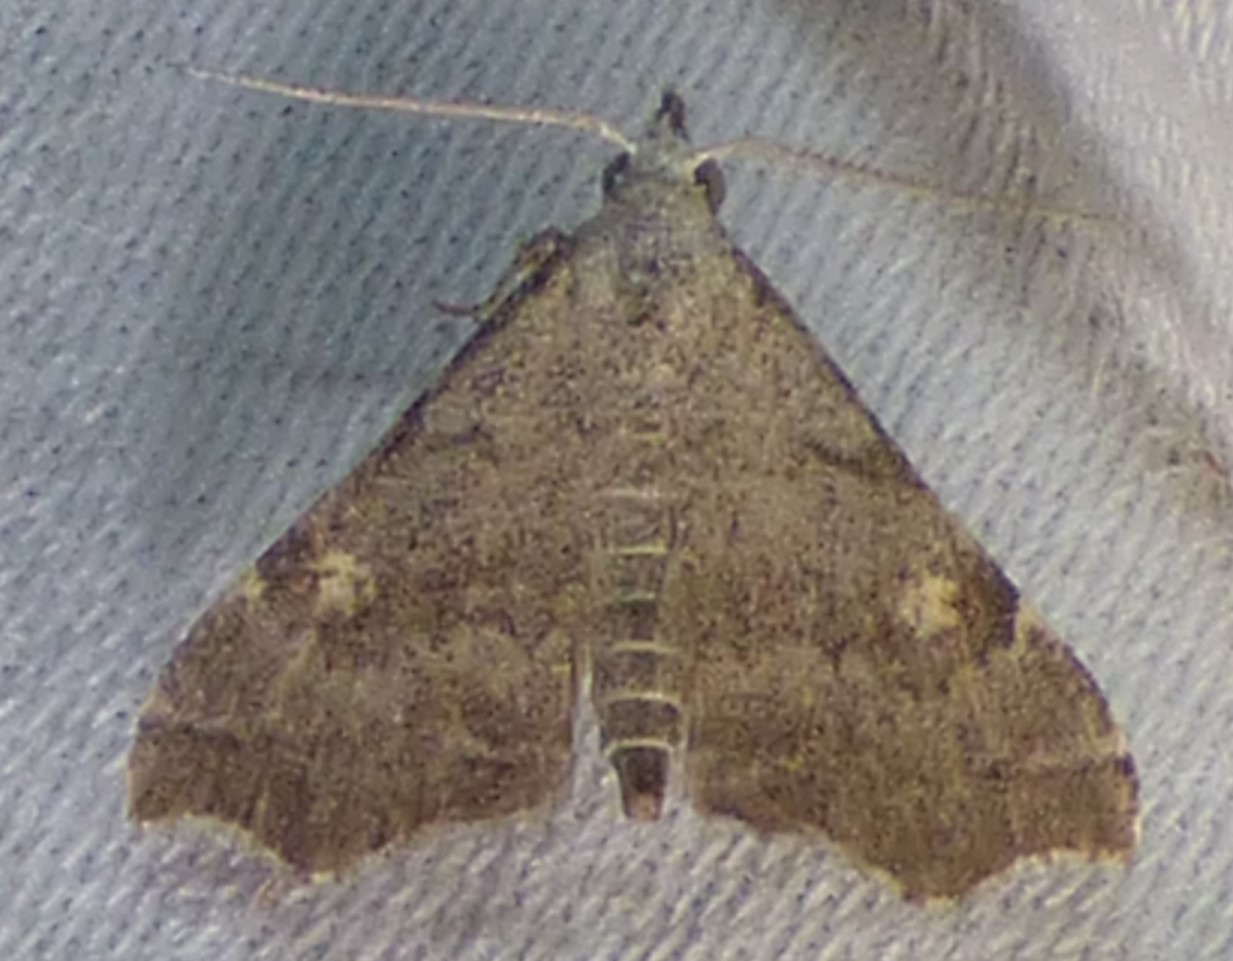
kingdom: Animalia
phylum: Arthropoda
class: Insecta
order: Lepidoptera
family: Erebidae
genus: Redectis
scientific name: Redectis pygmaea
